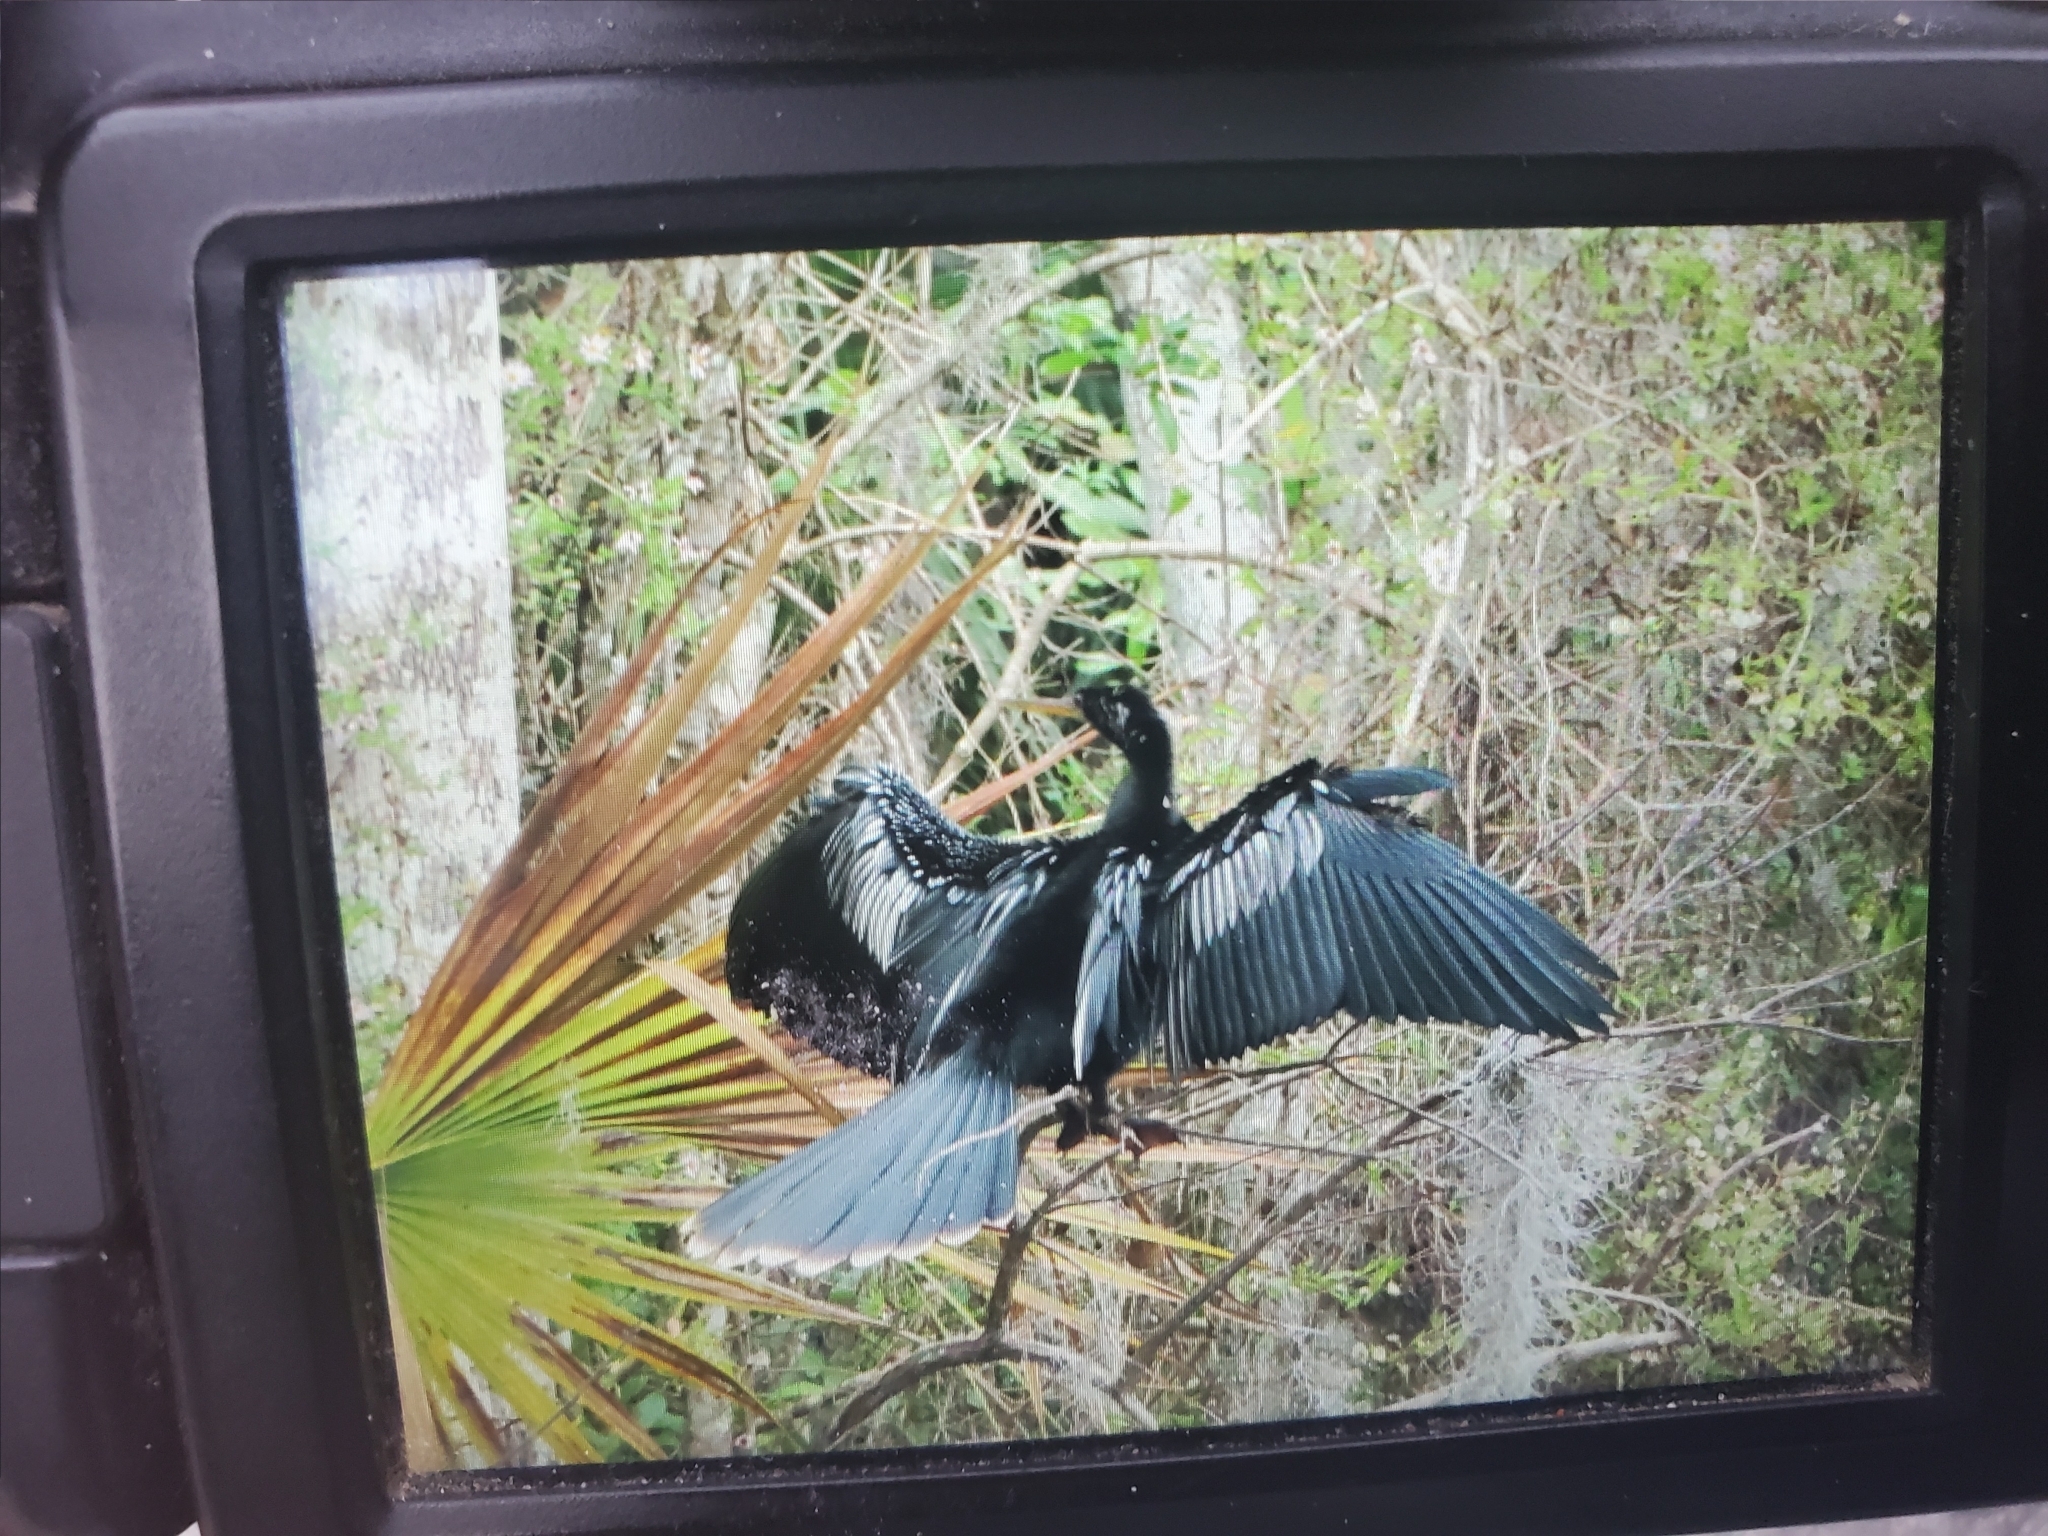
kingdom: Animalia
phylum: Chordata
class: Aves
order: Suliformes
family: Anhingidae
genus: Anhinga
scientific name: Anhinga anhinga
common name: Anhinga
